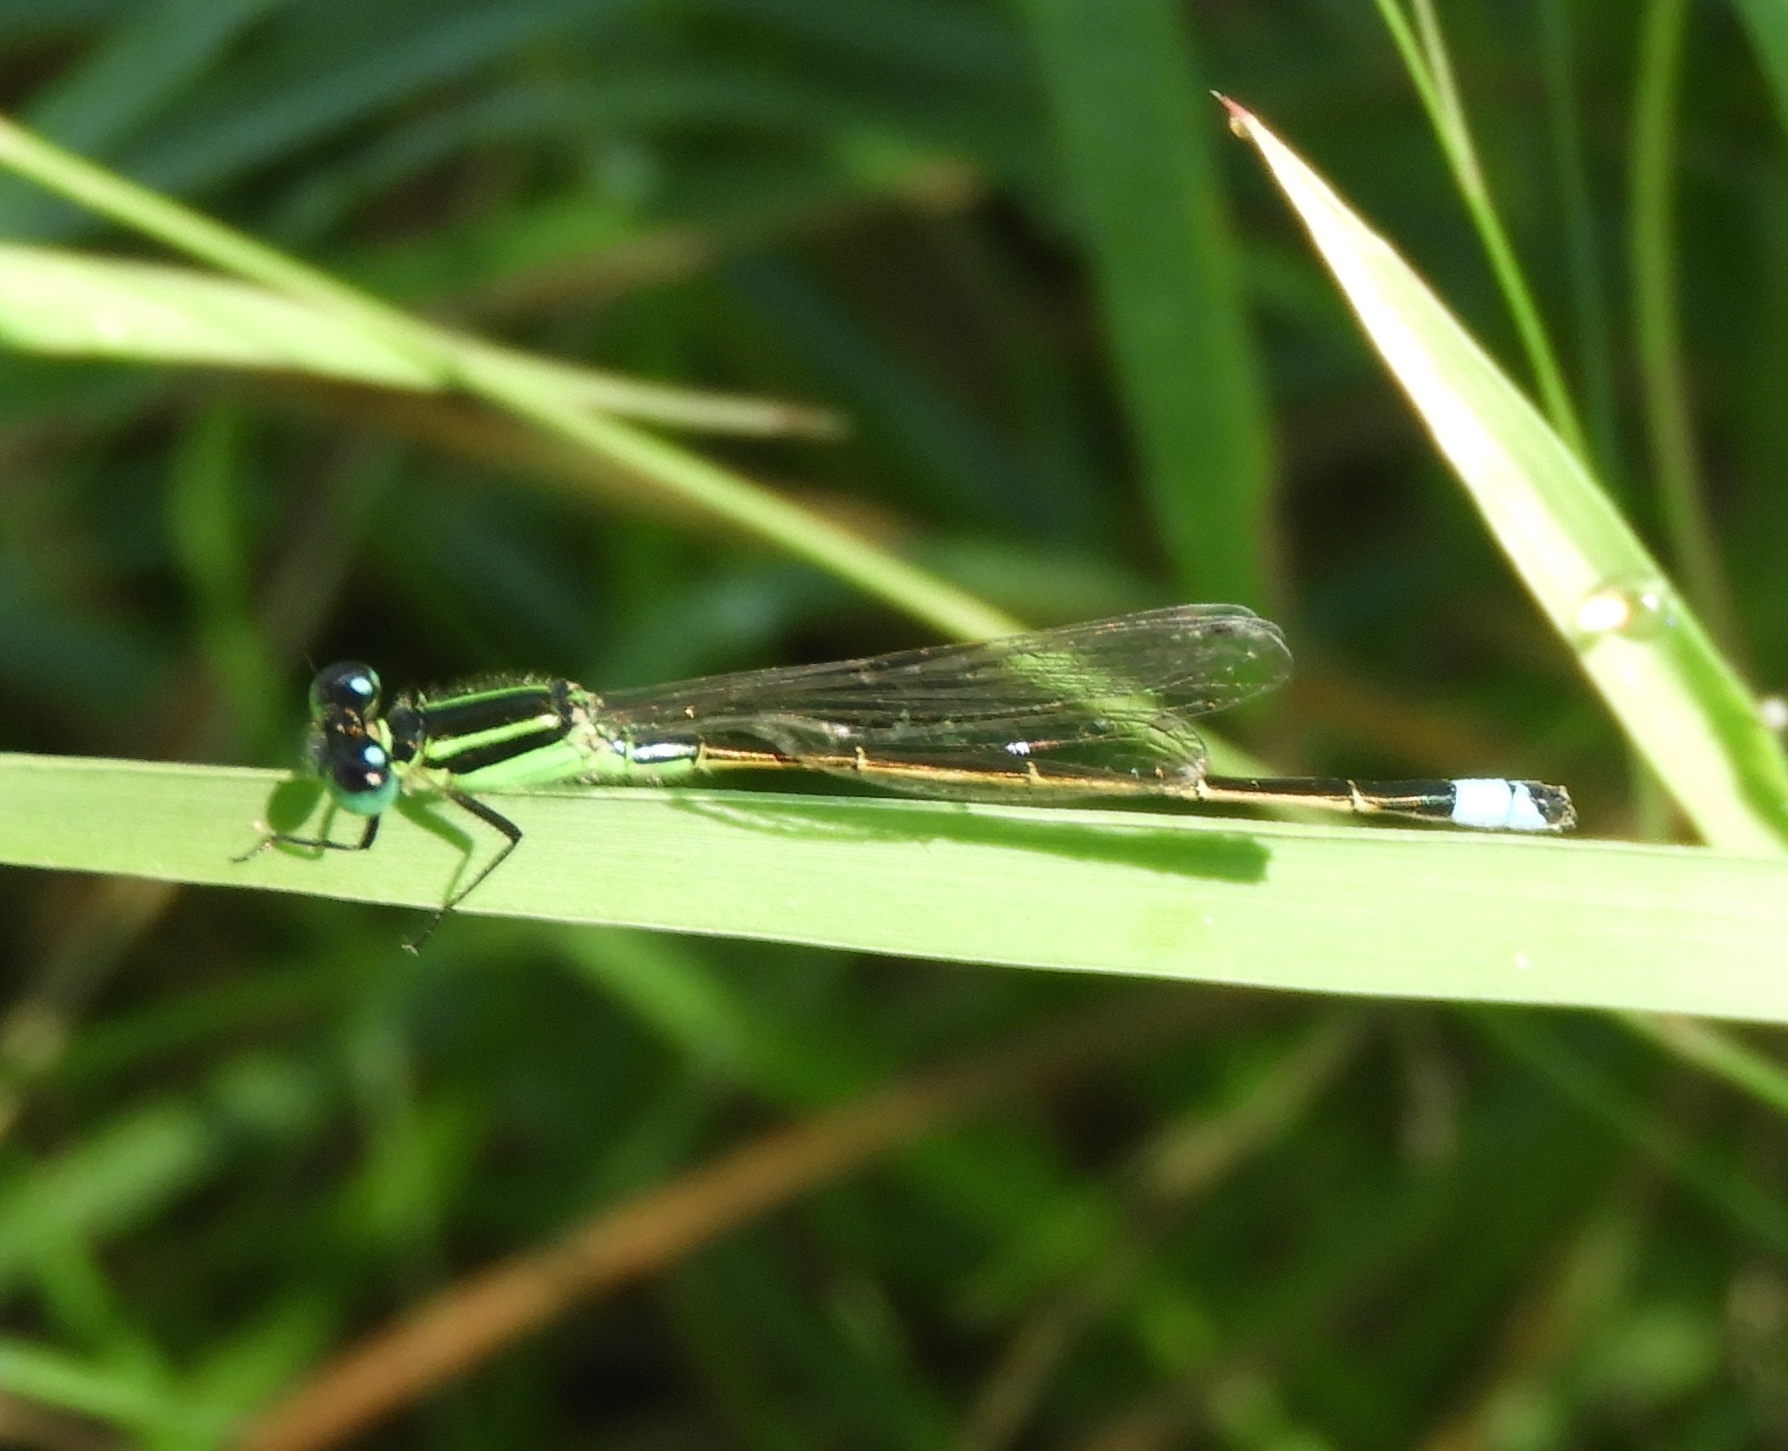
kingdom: Animalia
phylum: Arthropoda
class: Insecta
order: Odonata
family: Coenagrionidae
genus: Ischnura
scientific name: Ischnura ramburii
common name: Rambur's forktail
